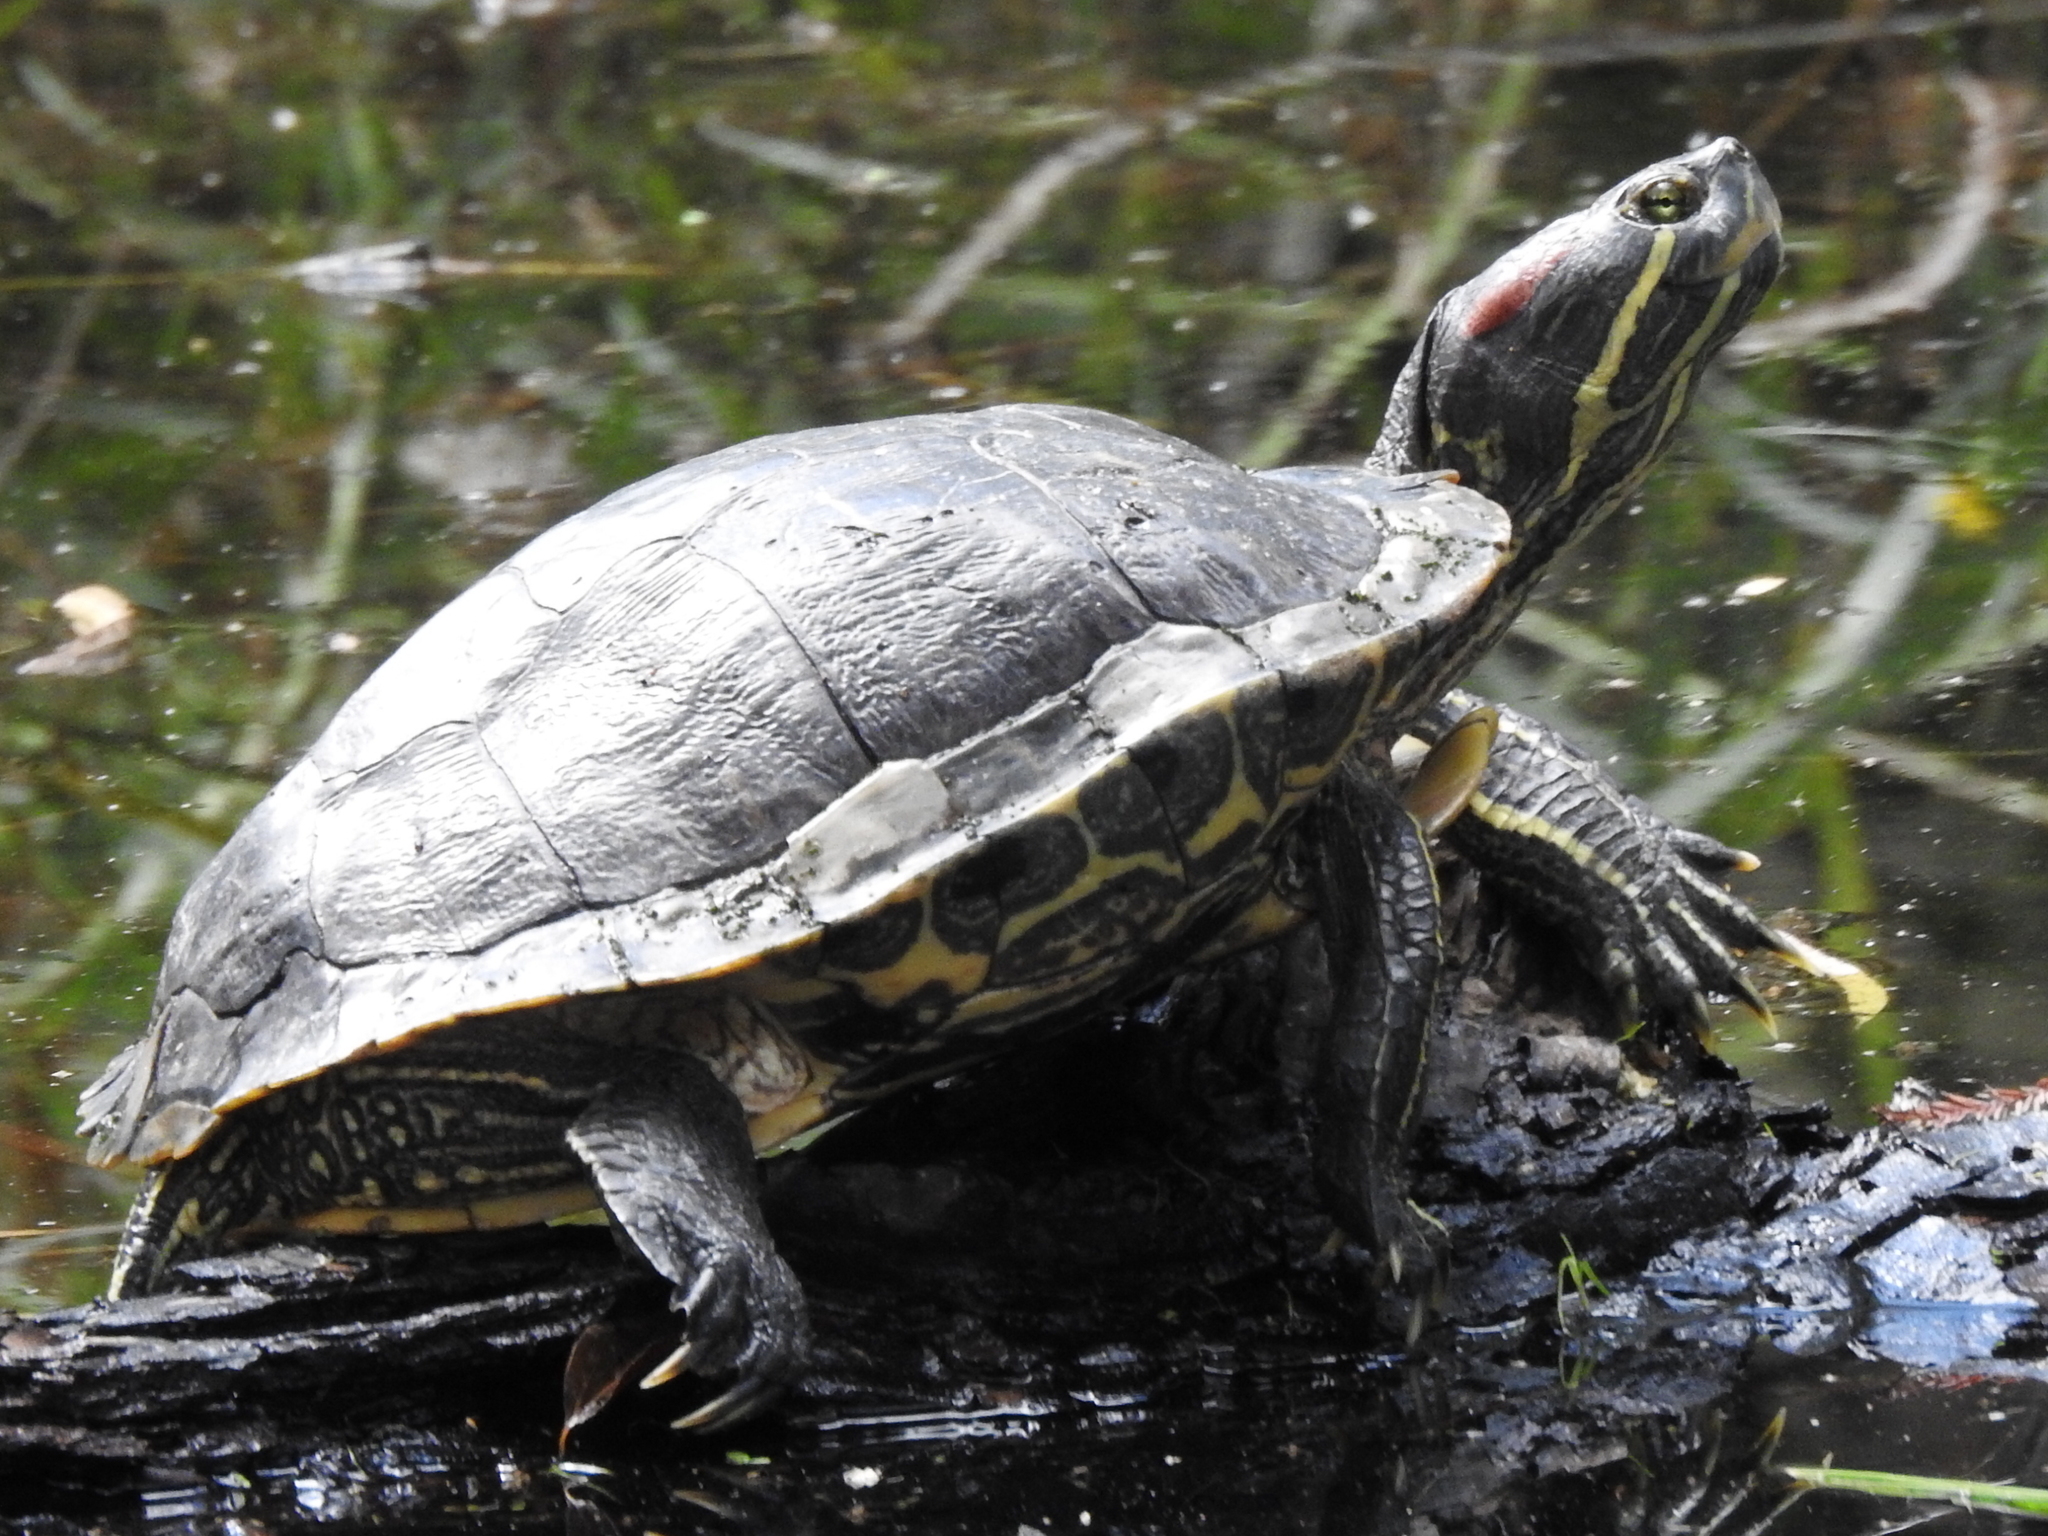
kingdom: Animalia
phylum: Chordata
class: Testudines
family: Emydidae
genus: Trachemys
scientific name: Trachemys scripta
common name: Slider
